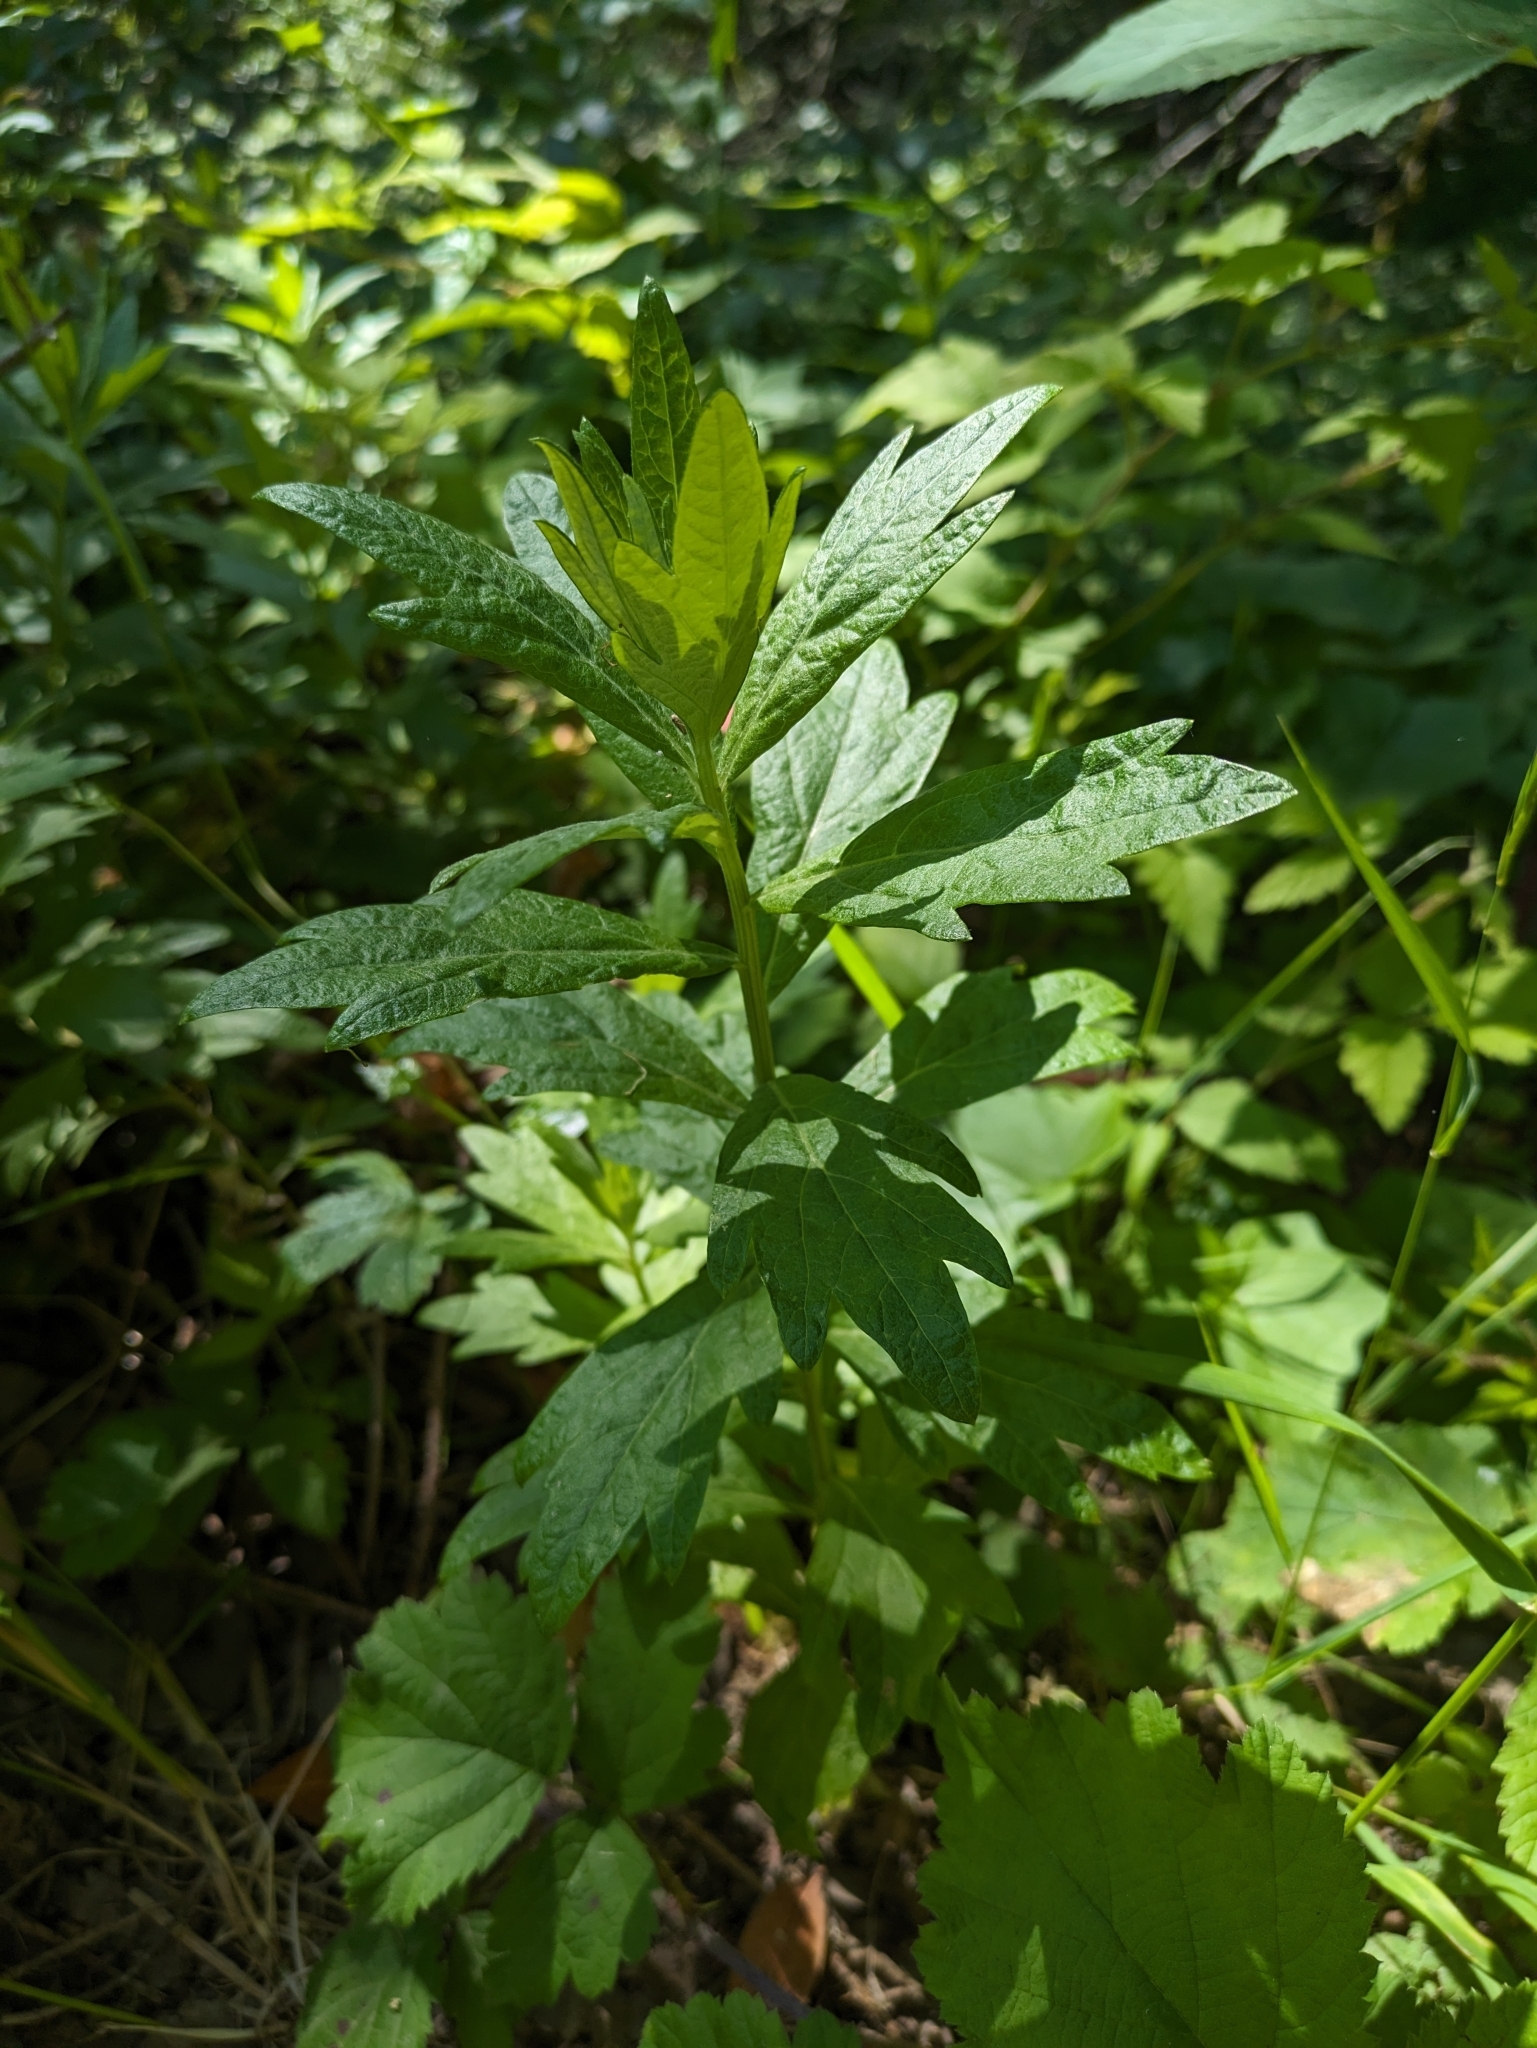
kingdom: Plantae
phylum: Tracheophyta
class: Magnoliopsida
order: Asterales
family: Asteraceae
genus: Artemisia
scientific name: Artemisia douglasiana
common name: Northwest mugwort
